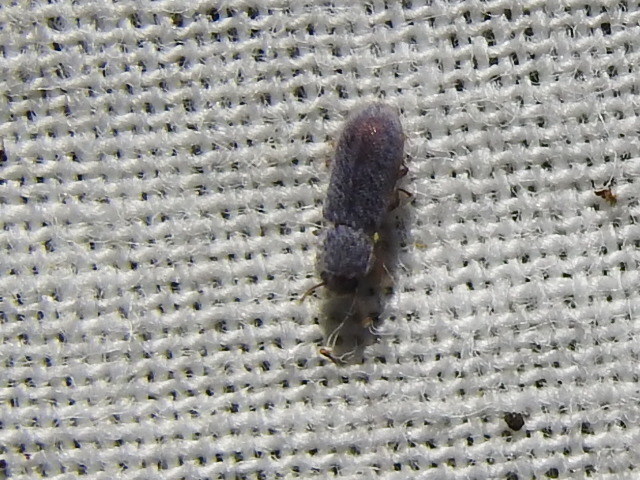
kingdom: Animalia
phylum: Arthropoda
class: Insecta
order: Coleoptera
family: Zopheridae
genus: Endeitoma
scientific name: Endeitoma granulata
